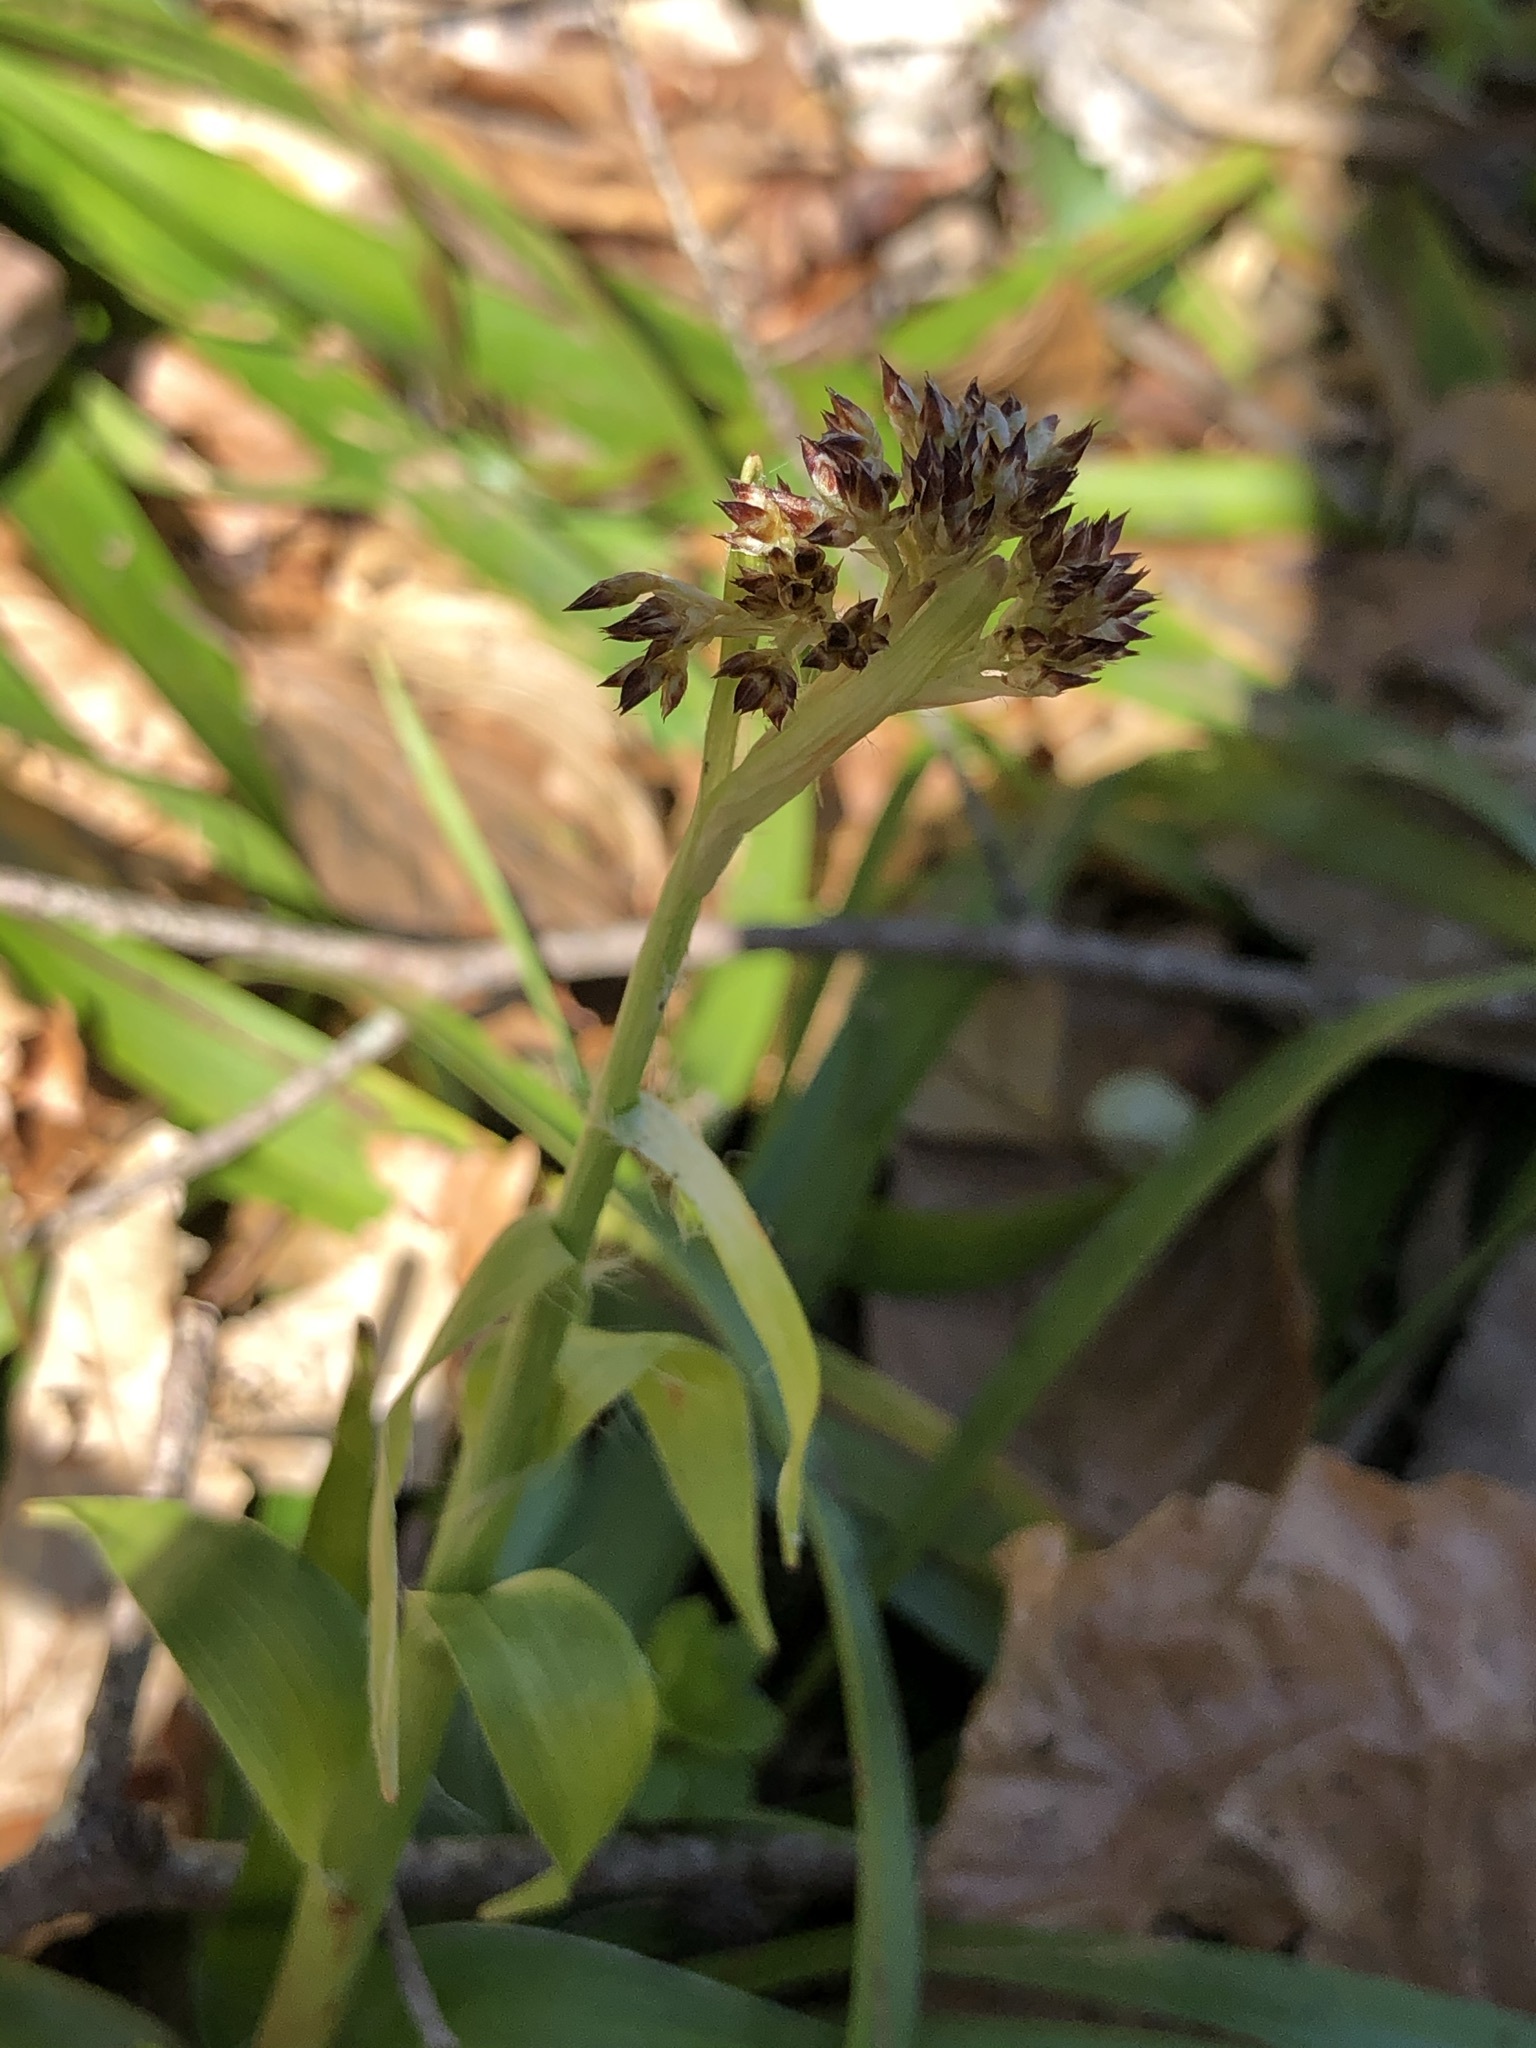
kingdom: Plantae
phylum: Tracheophyta
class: Liliopsida
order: Poales
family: Juncaceae
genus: Luzula
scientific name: Luzula sylvatica
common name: Great wood-rush
